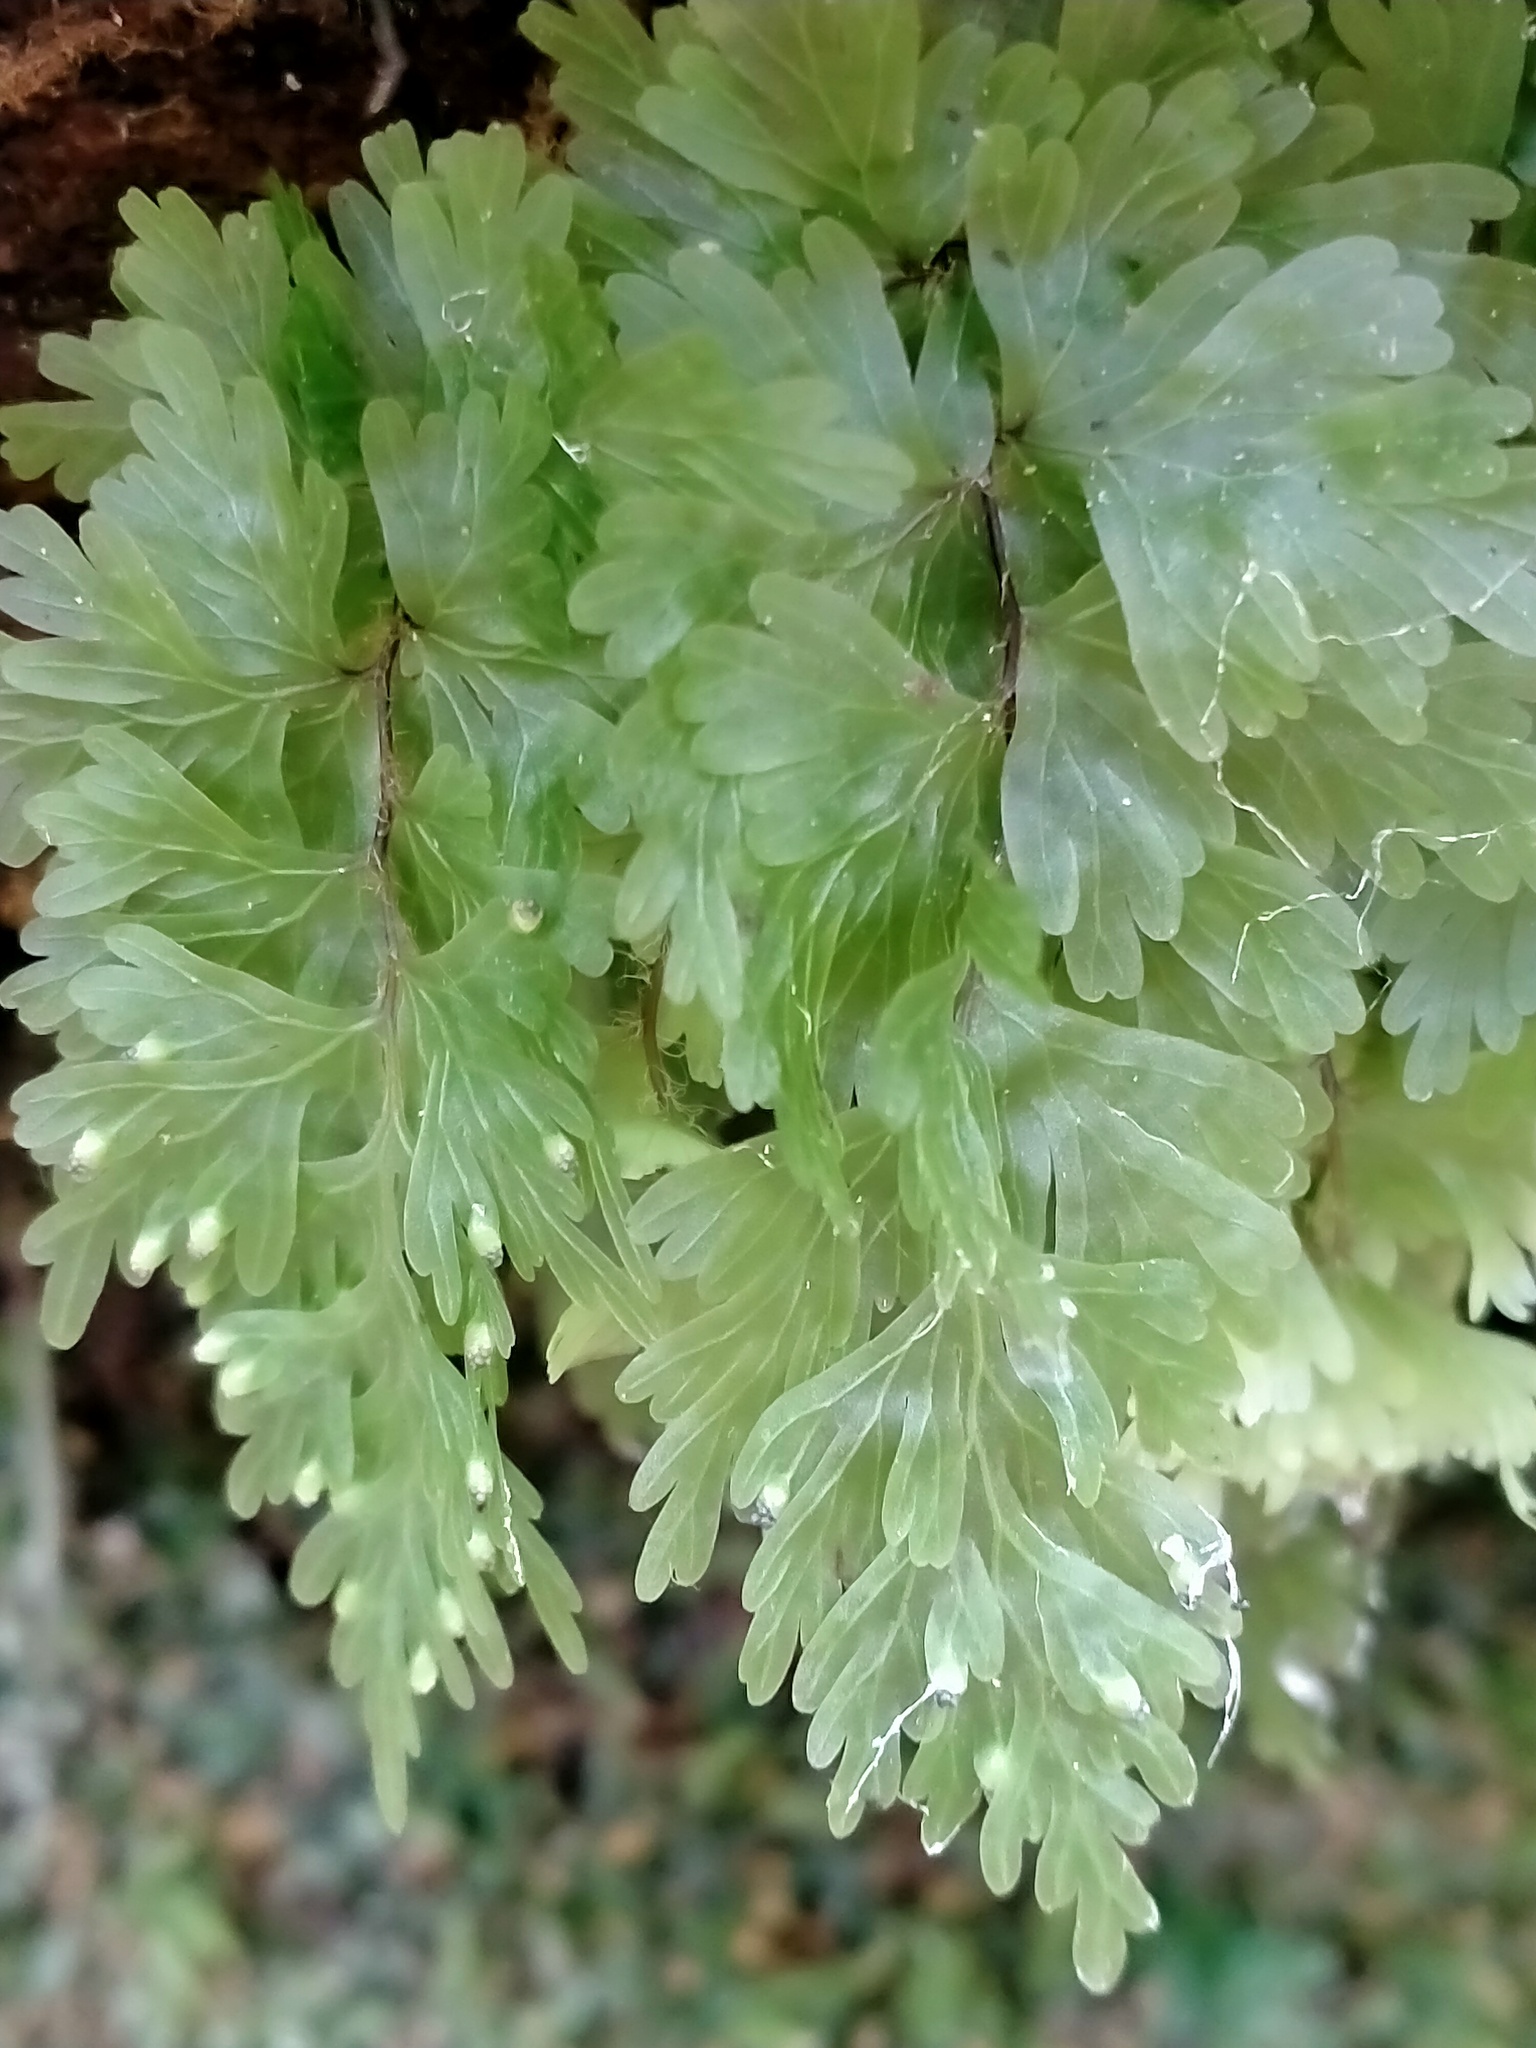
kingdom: Plantae
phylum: Tracheophyta
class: Polypodiopsida
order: Hymenophyllales
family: Hymenophyllaceae
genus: Hymenophyllum
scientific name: Hymenophyllum flabellatum
